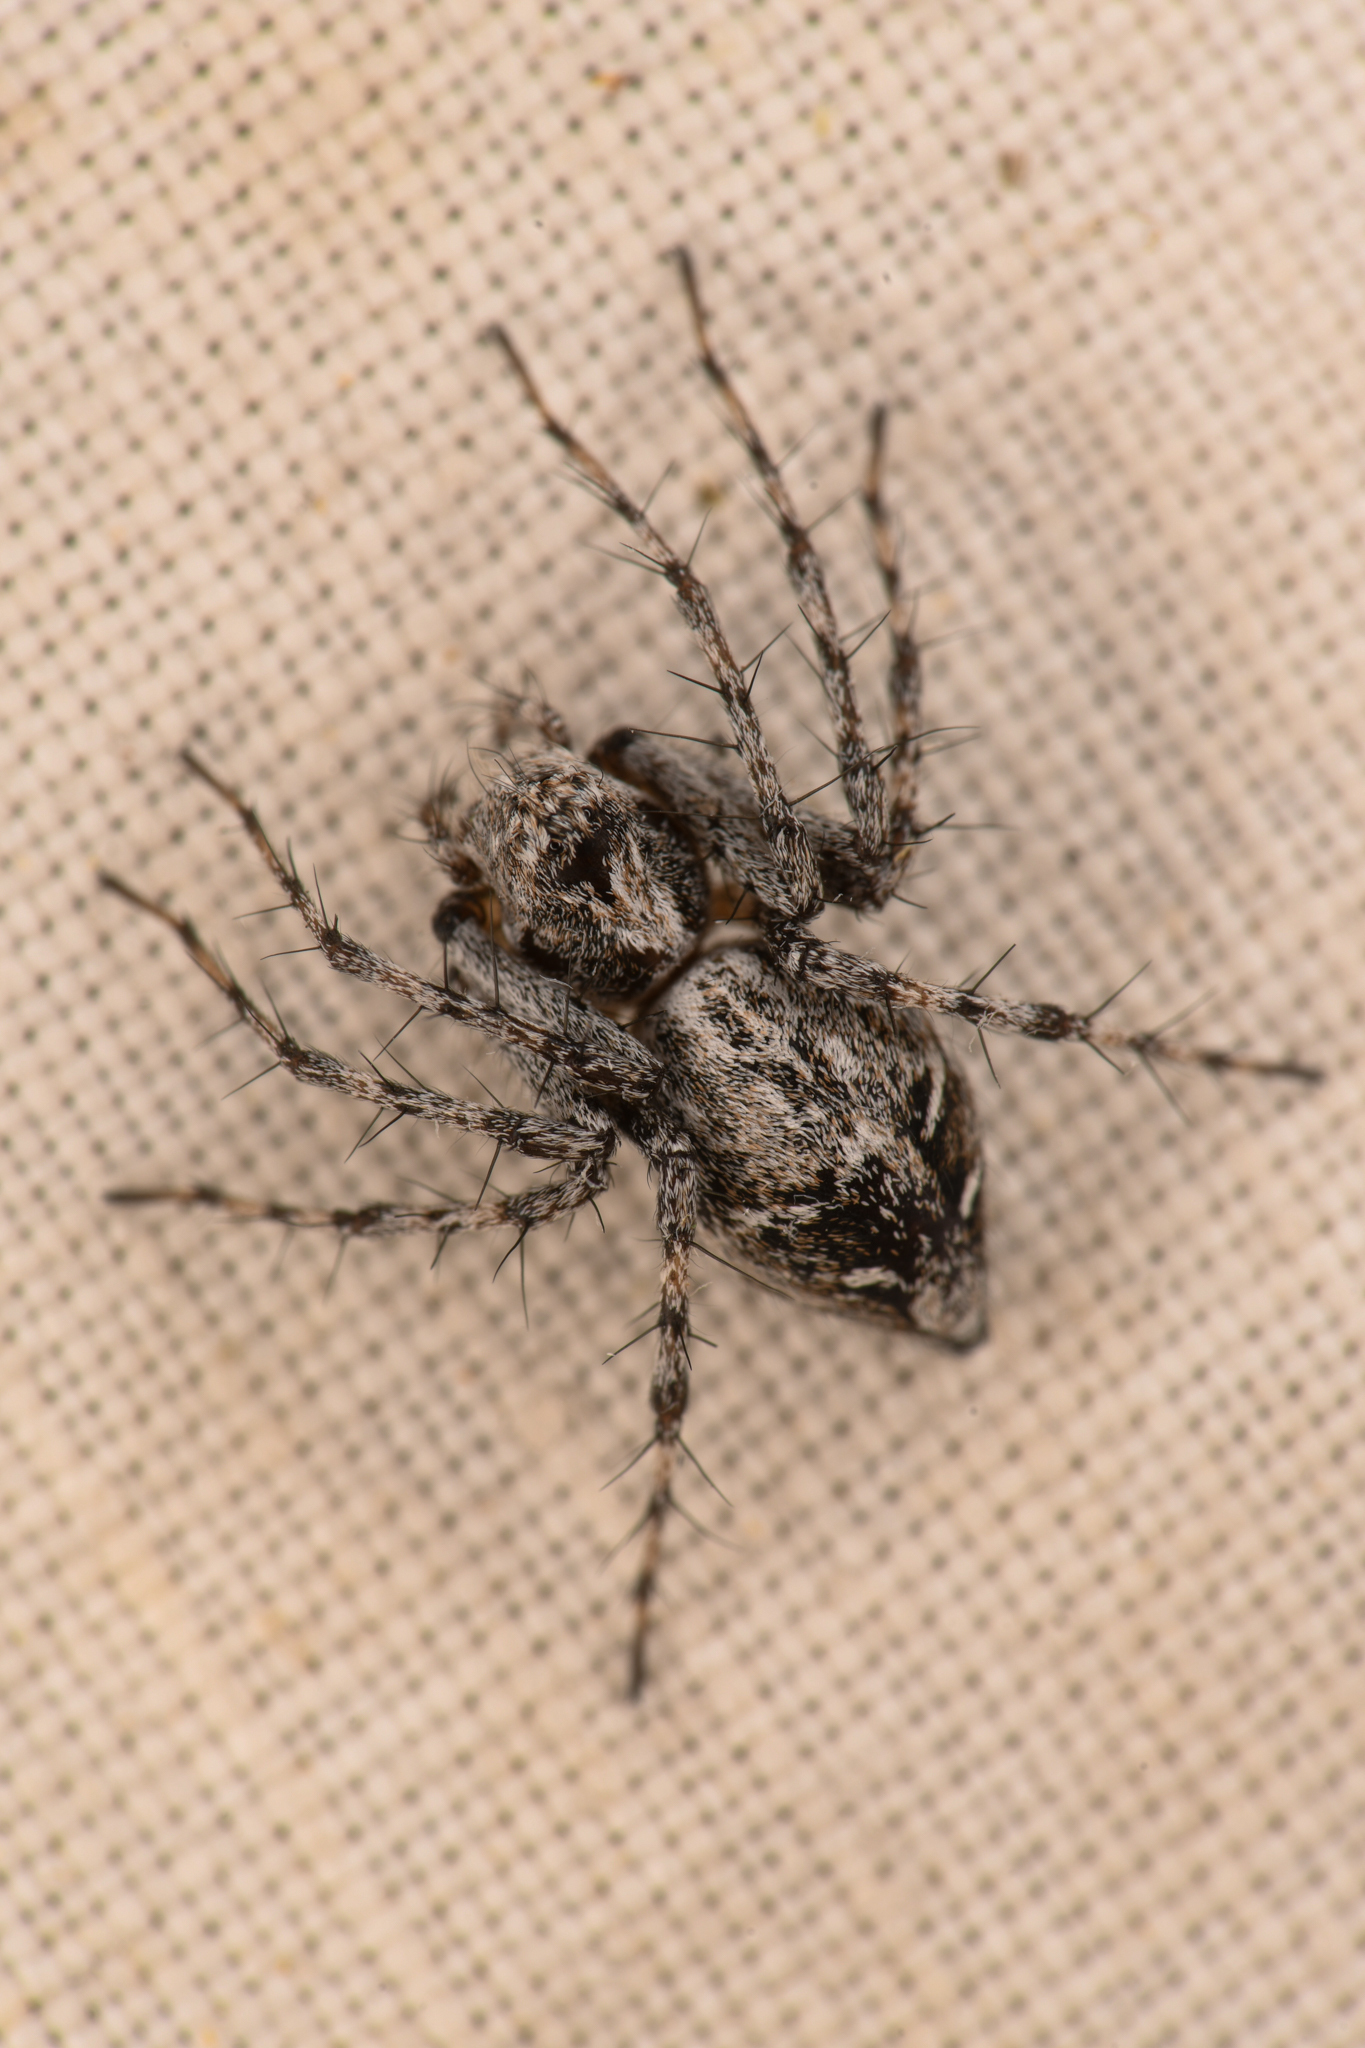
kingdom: Animalia
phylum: Arthropoda
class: Arachnida
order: Araneae
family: Oxyopidae
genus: Oxyopes
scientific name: Oxyopes scalaris
